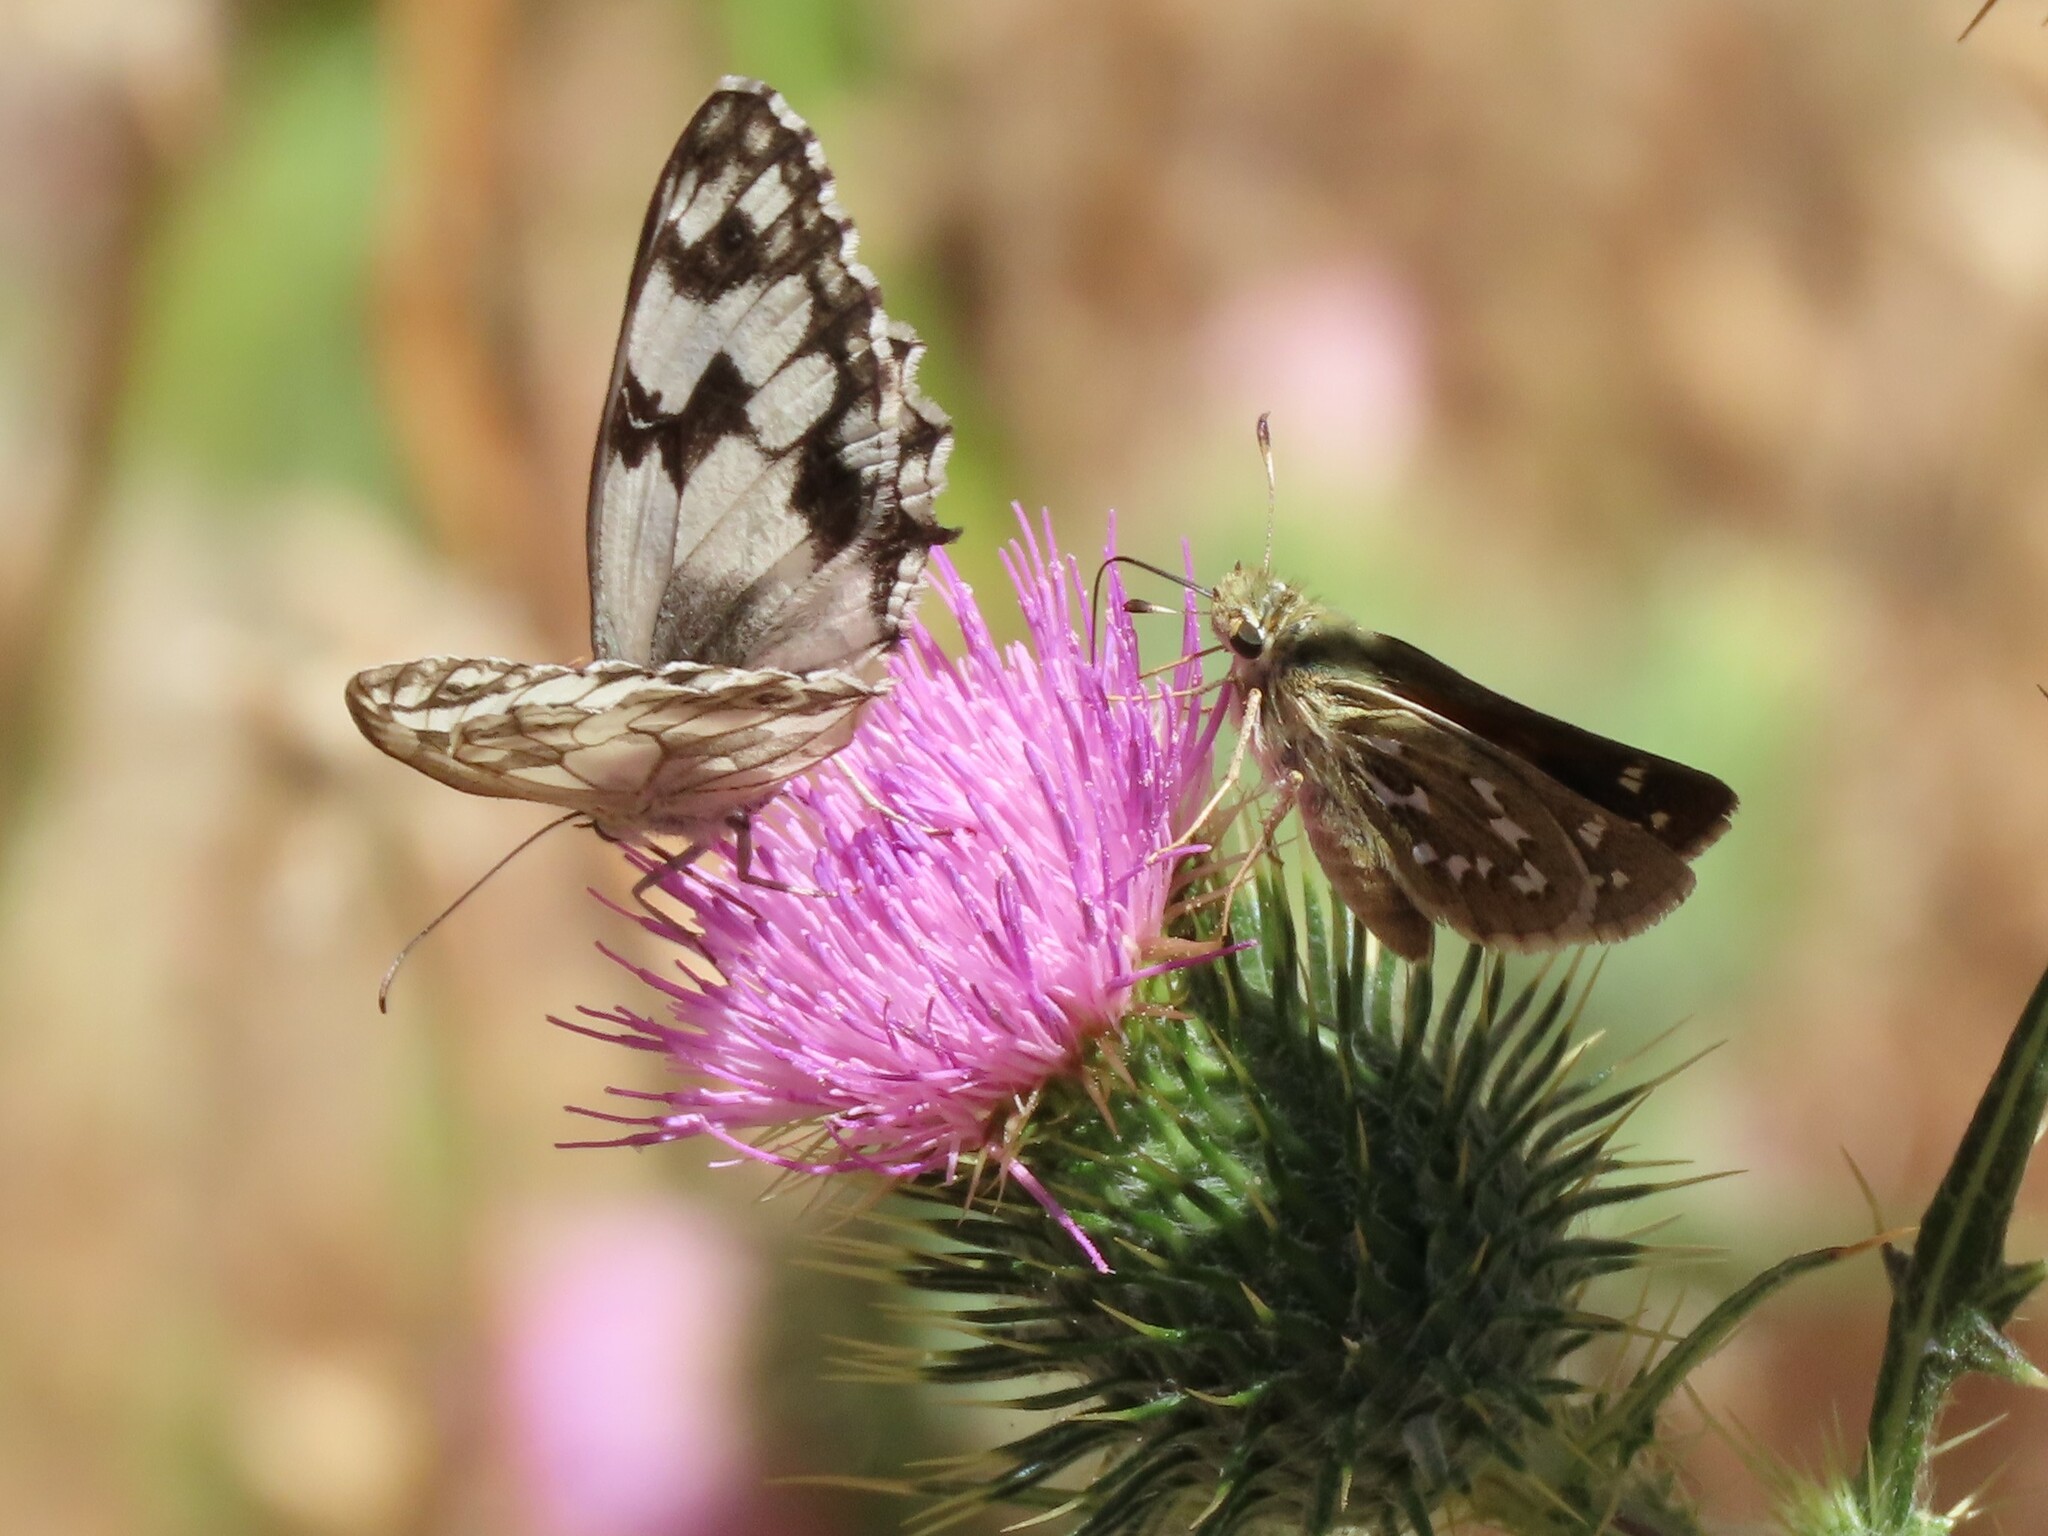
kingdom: Animalia
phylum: Arthropoda
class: Insecta
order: Lepidoptera
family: Nymphalidae
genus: Melanargia
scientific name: Melanargia lachesis
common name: Iberian marbled white
